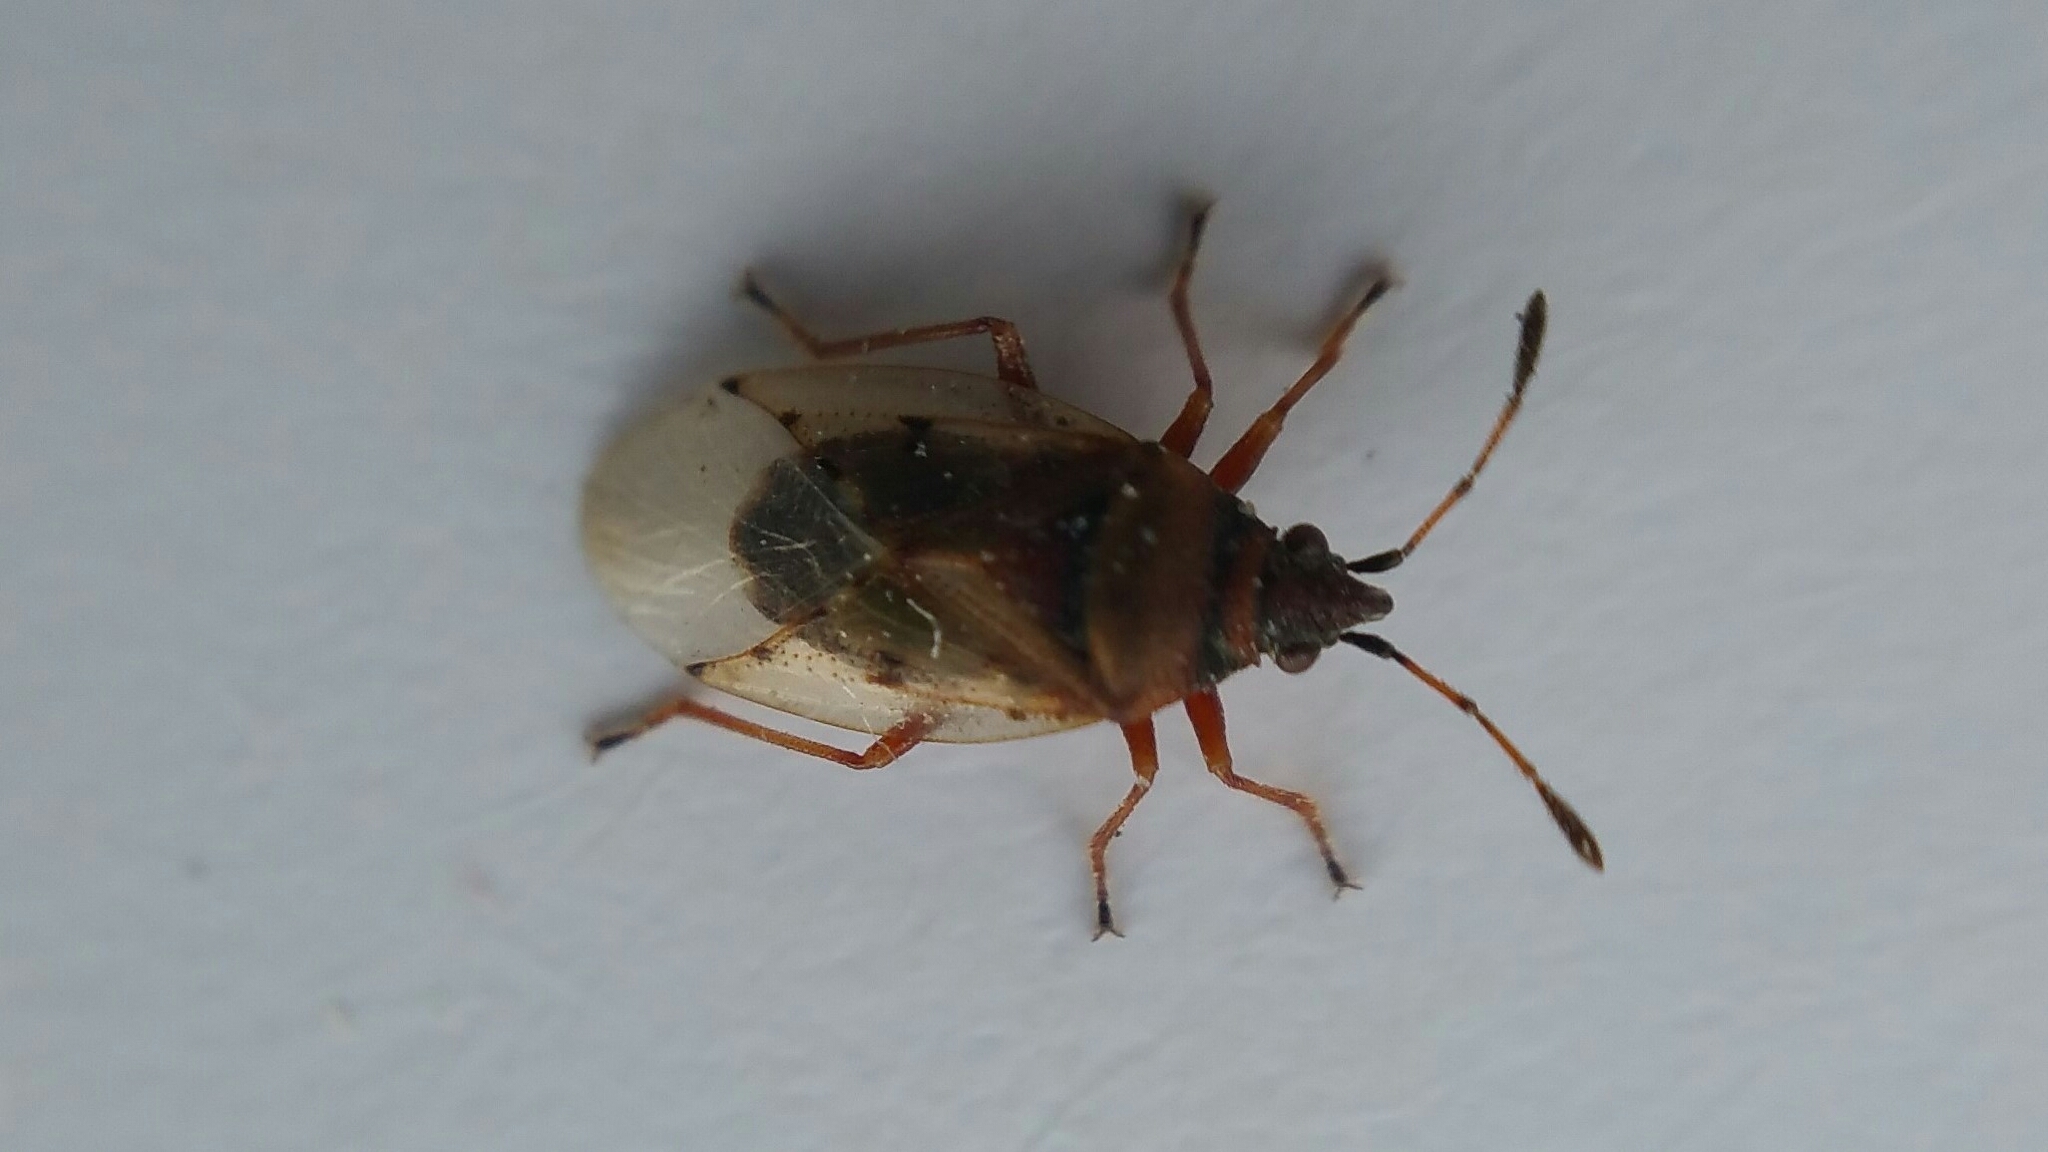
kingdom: Animalia
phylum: Arthropoda
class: Insecta
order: Hemiptera
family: Lygaeidae
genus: Kleidocerys
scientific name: Kleidocerys resedae
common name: Birch catkin bug
